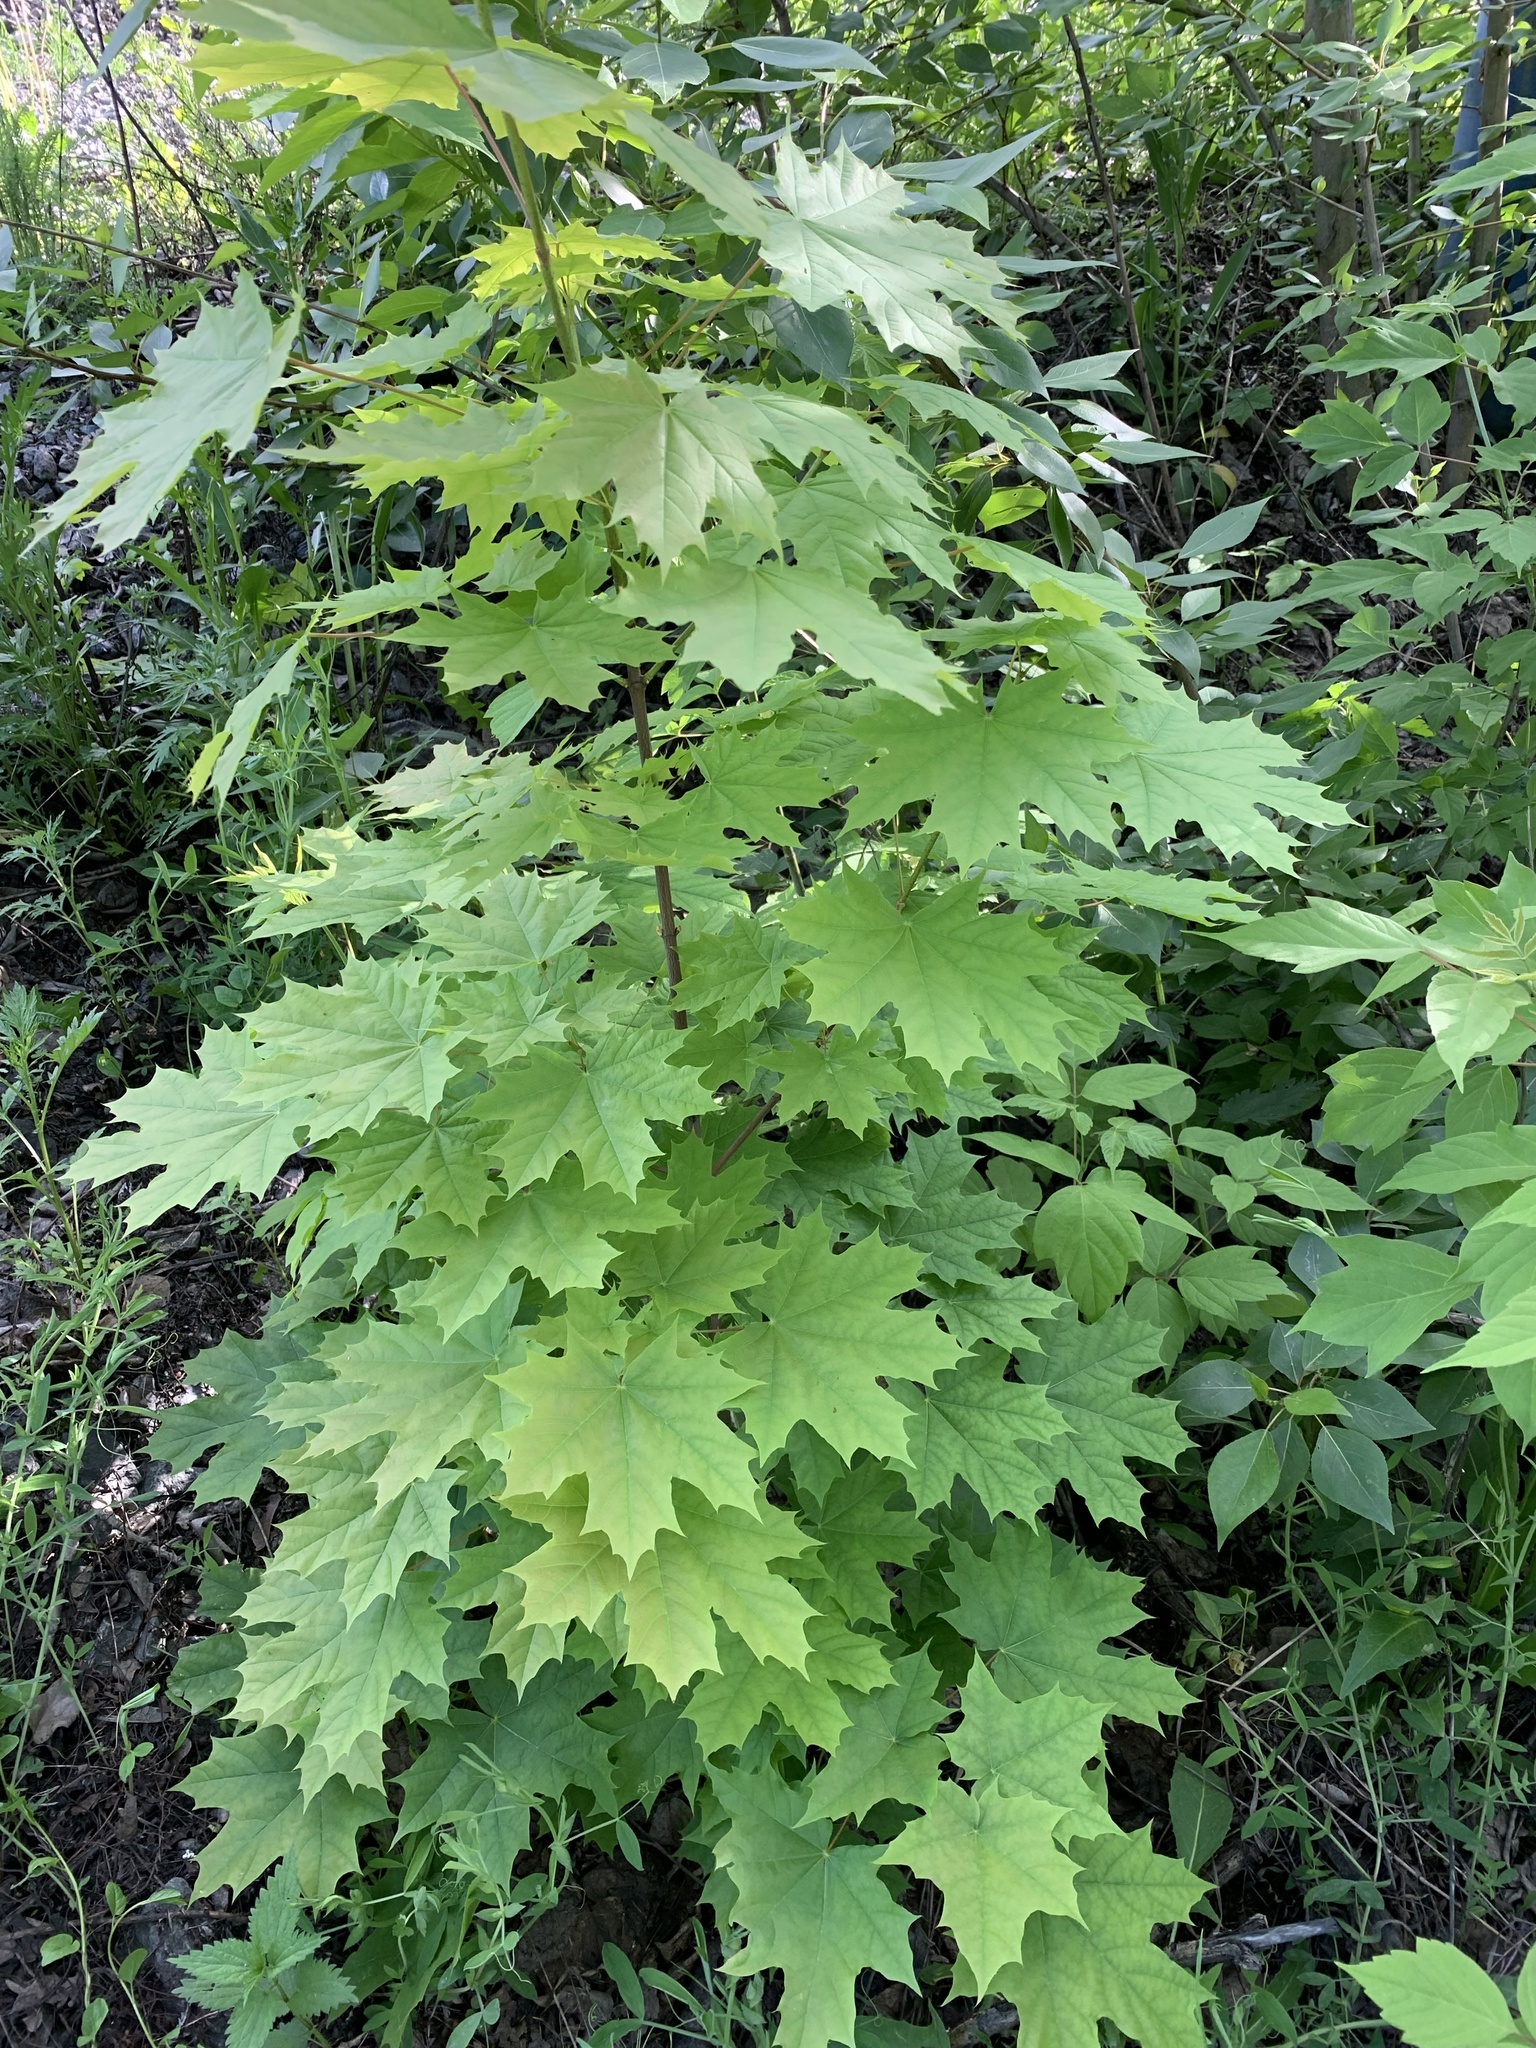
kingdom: Plantae
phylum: Tracheophyta
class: Magnoliopsida
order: Sapindales
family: Sapindaceae
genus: Acer
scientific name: Acer platanoides
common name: Norway maple
